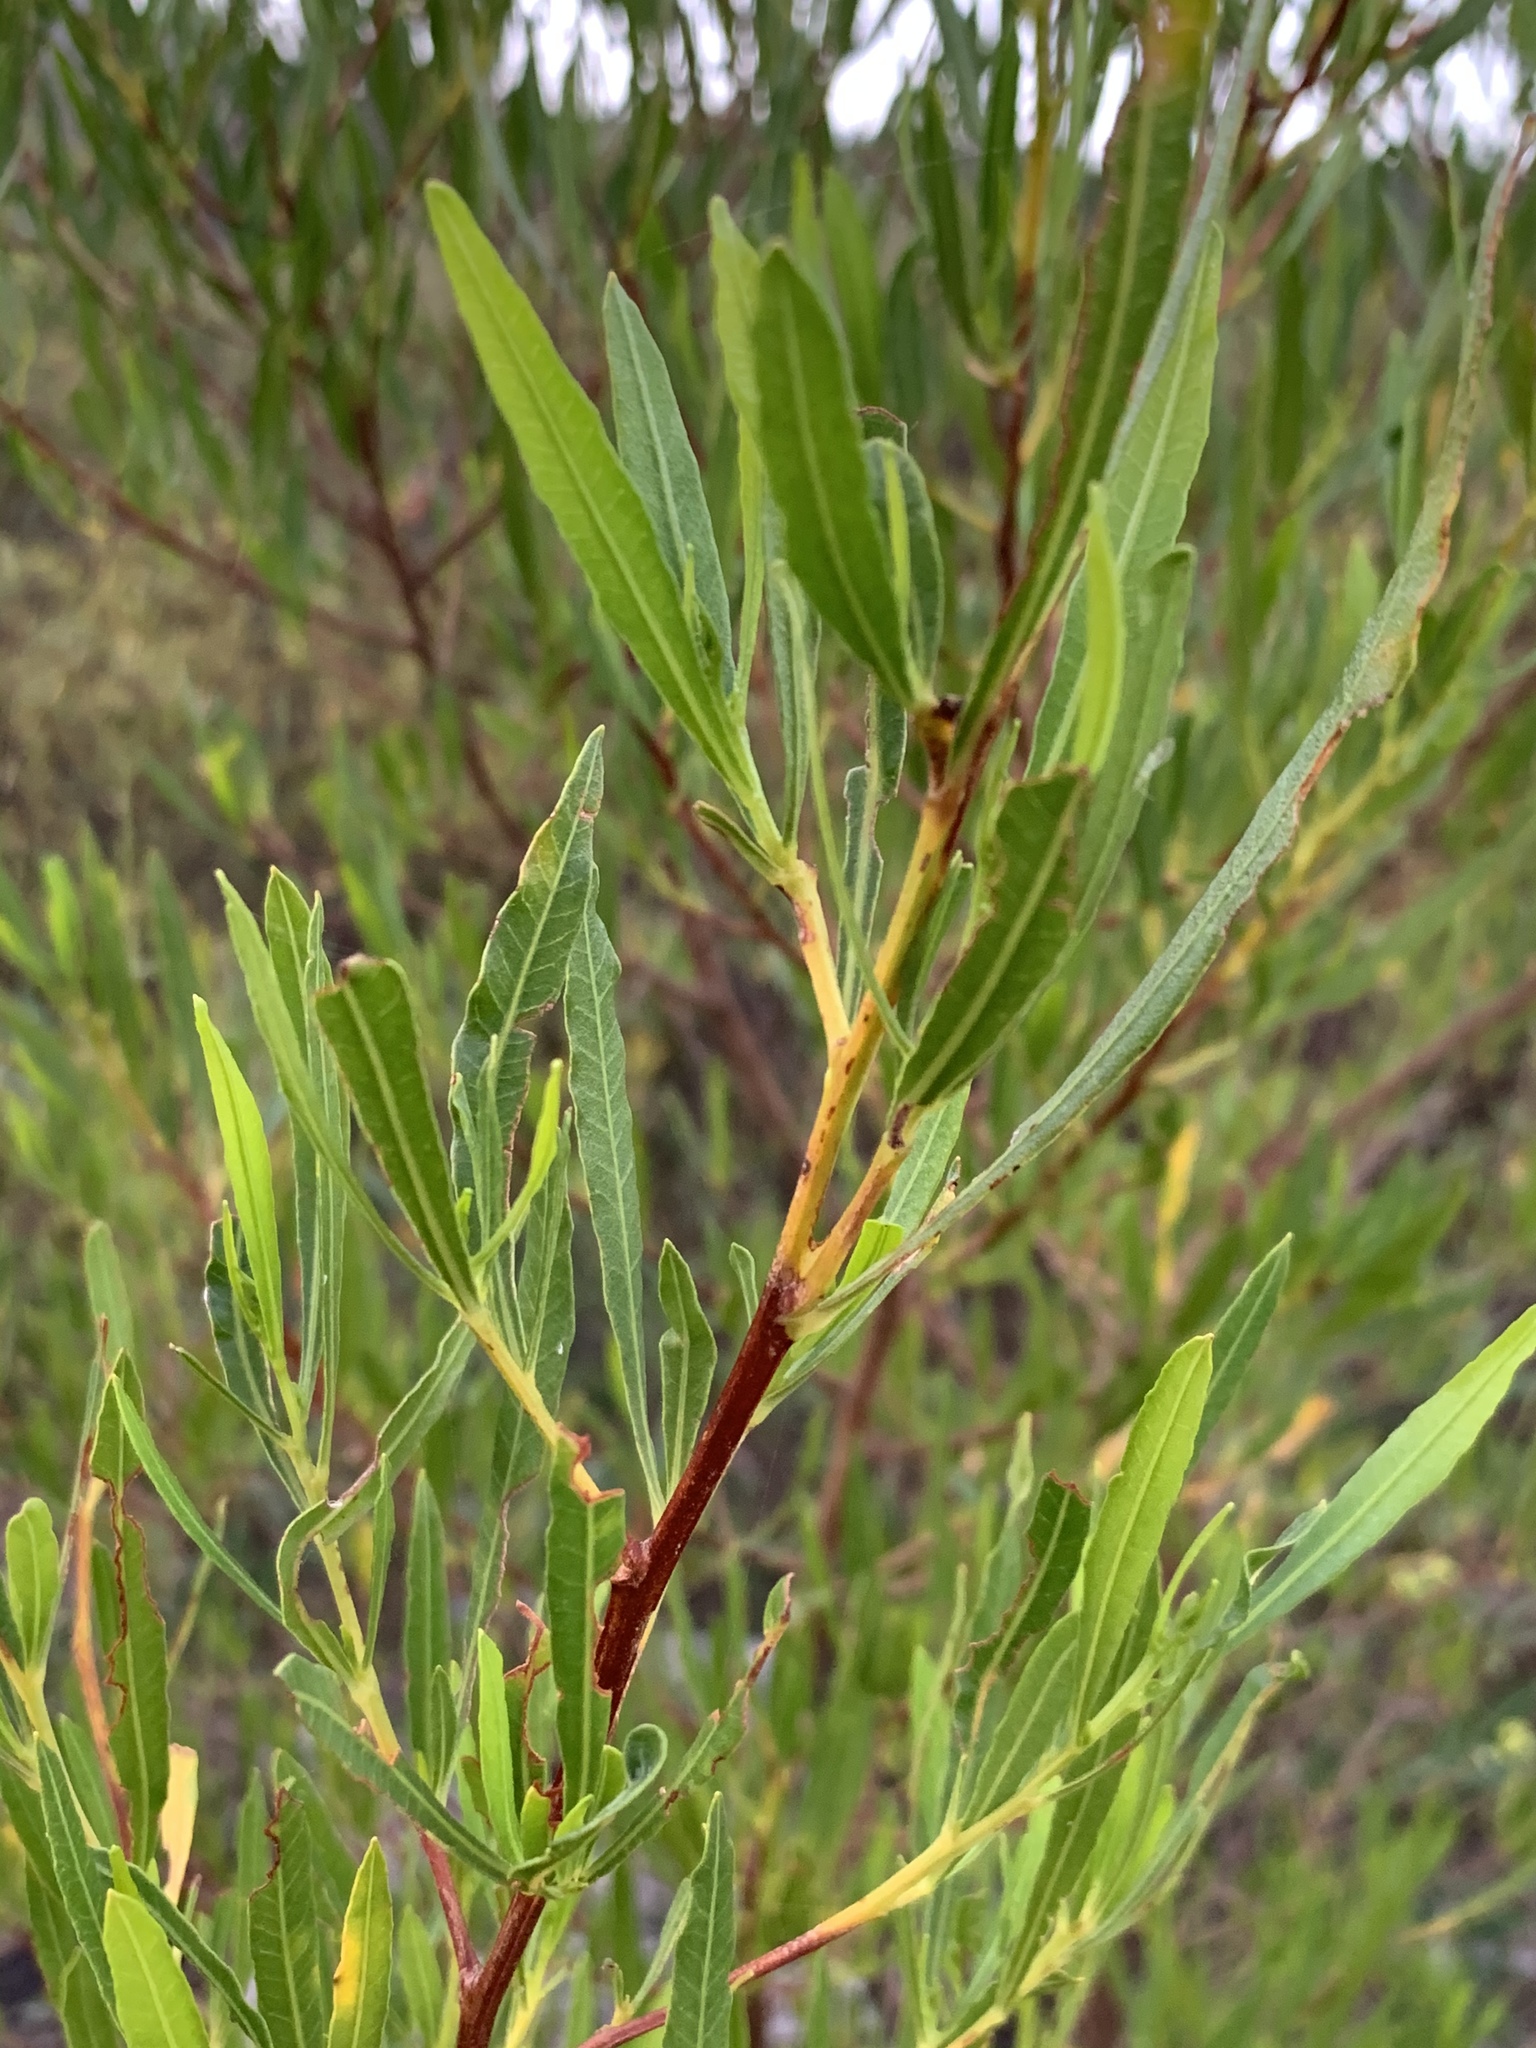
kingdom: Plantae
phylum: Tracheophyta
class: Magnoliopsida
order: Sapindales
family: Sapindaceae
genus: Dodonaea
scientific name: Dodonaea viscosa
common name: Hopbush
